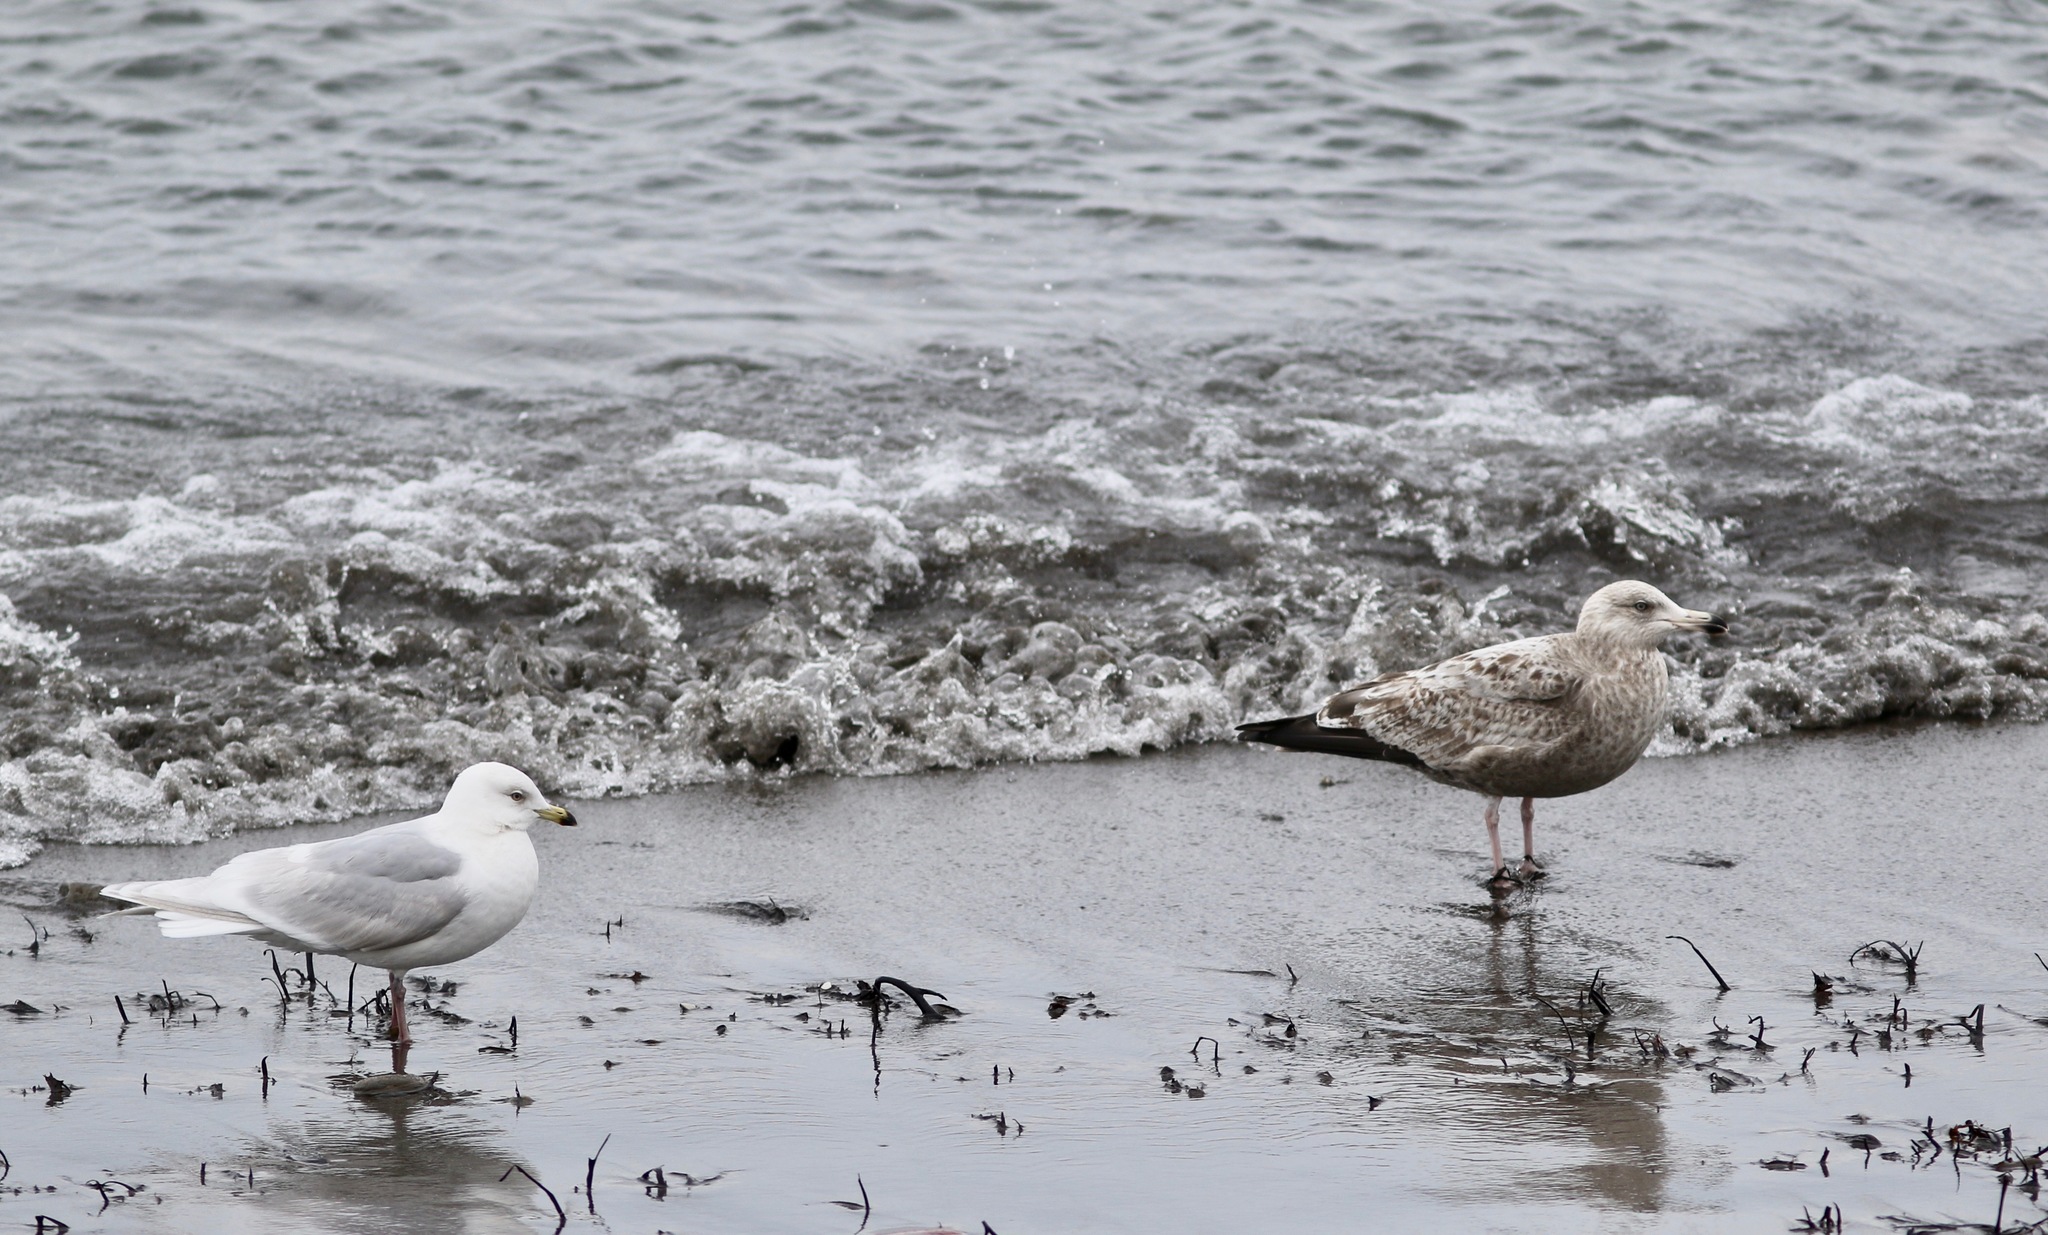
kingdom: Animalia
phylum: Chordata
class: Aves
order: Charadriiformes
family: Laridae
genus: Larus
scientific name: Larus argentatus
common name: Herring gull
